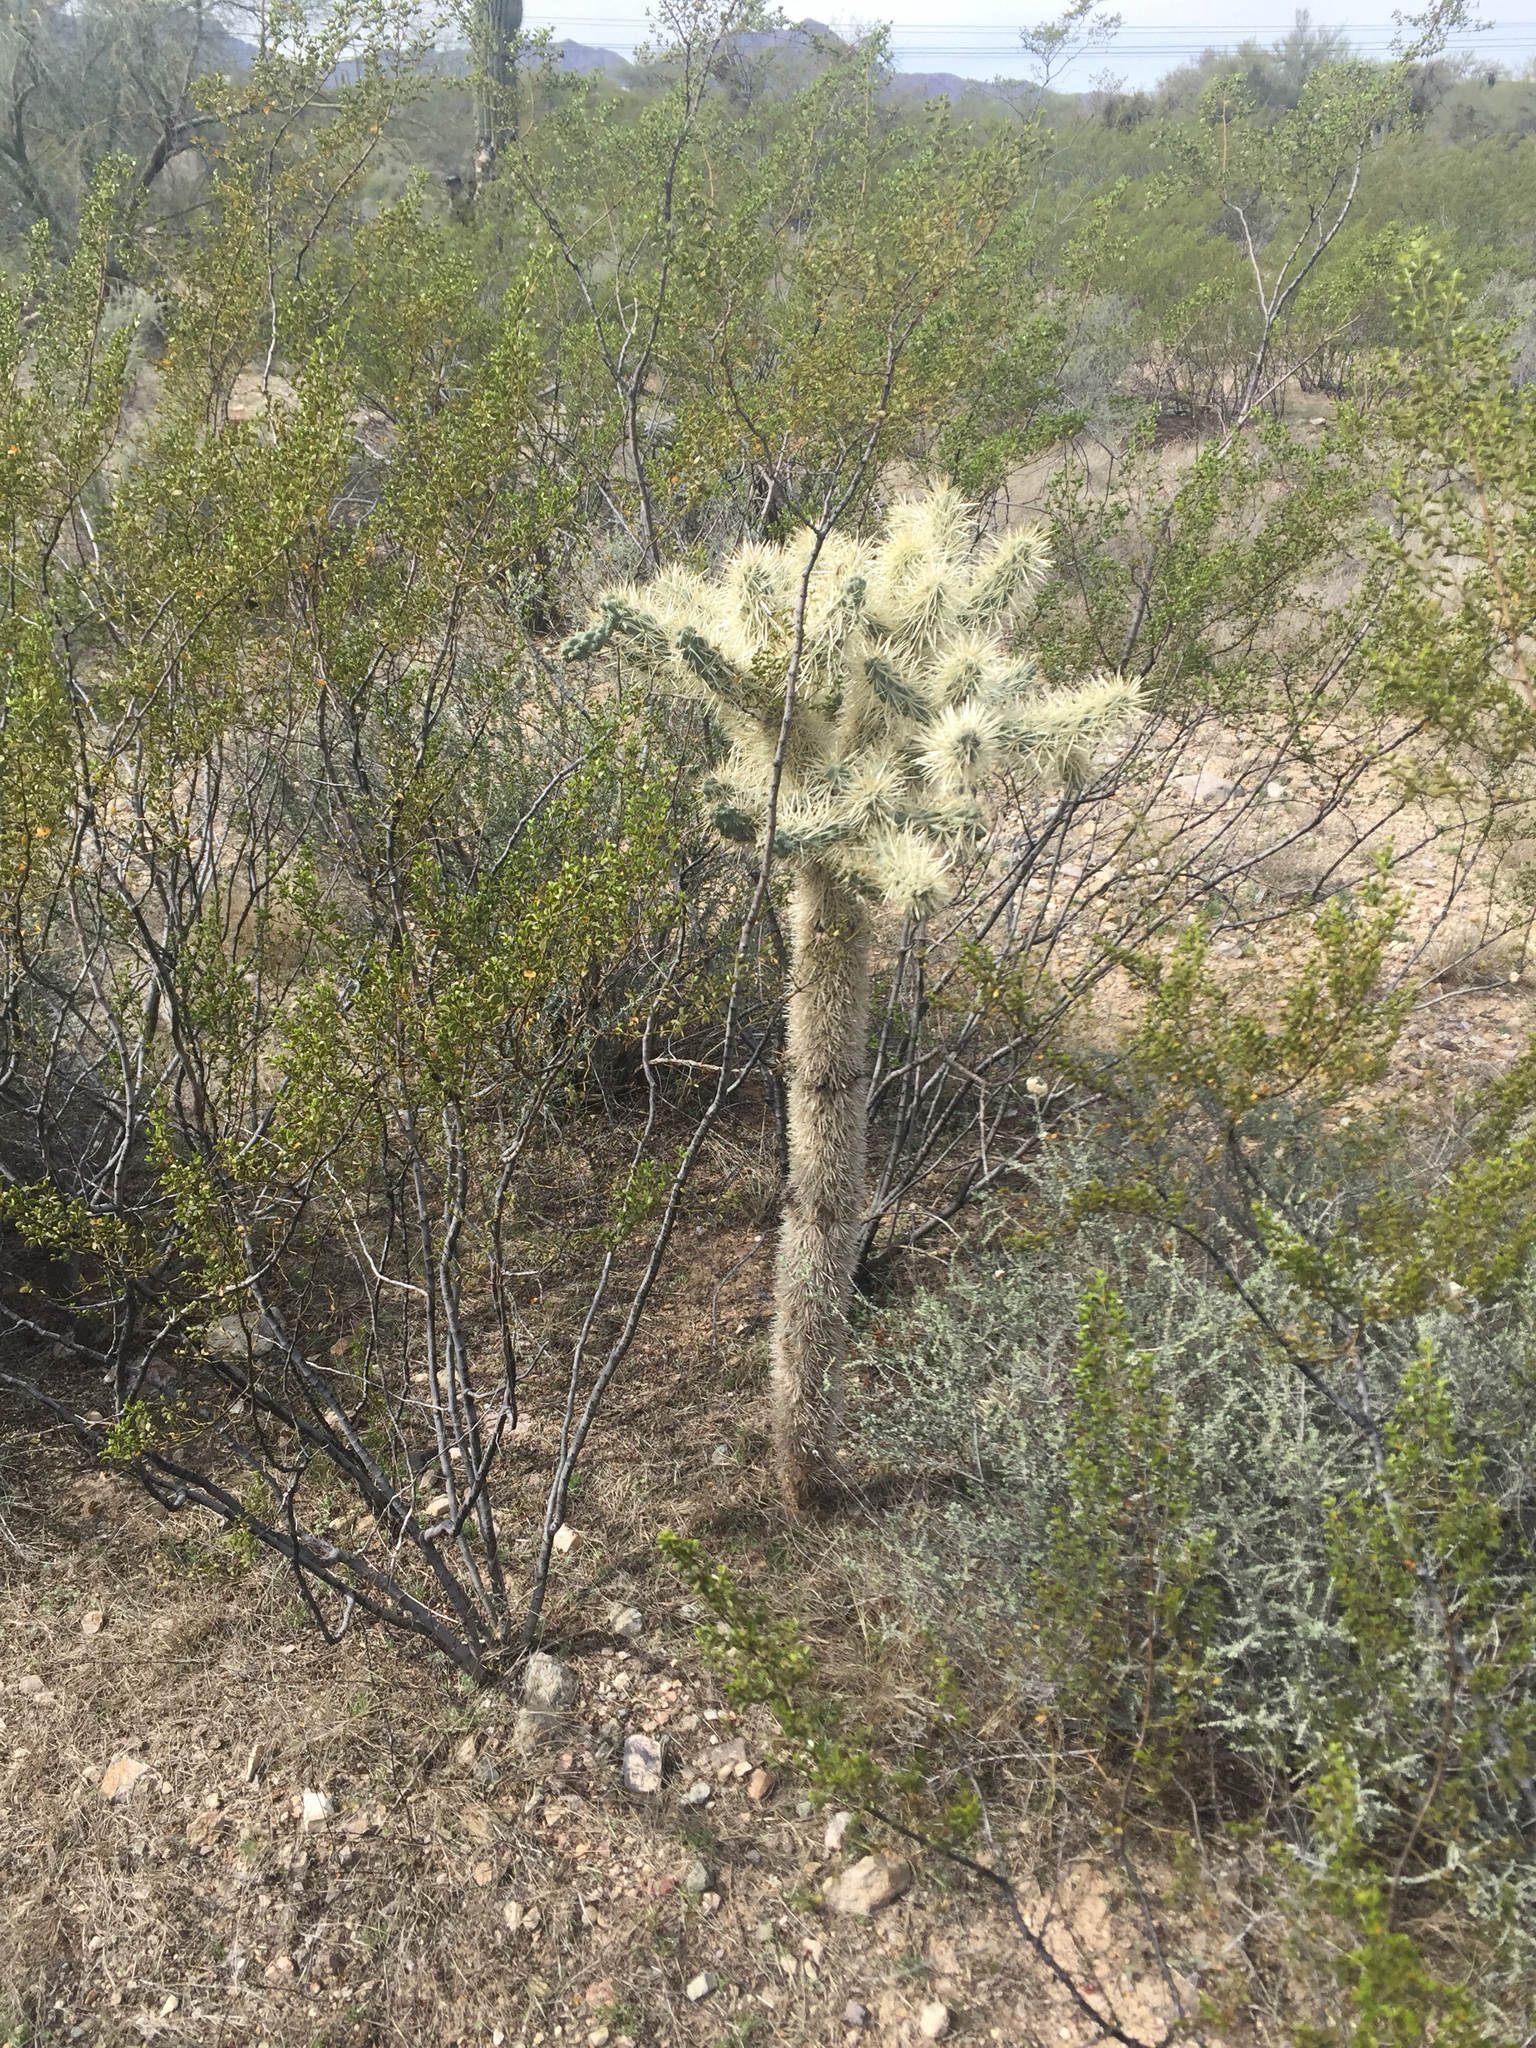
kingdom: Plantae
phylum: Tracheophyta
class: Magnoliopsida
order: Caryophyllales
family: Cactaceae
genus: Cylindropuntia
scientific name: Cylindropuntia fulgida
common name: Jumping cholla
